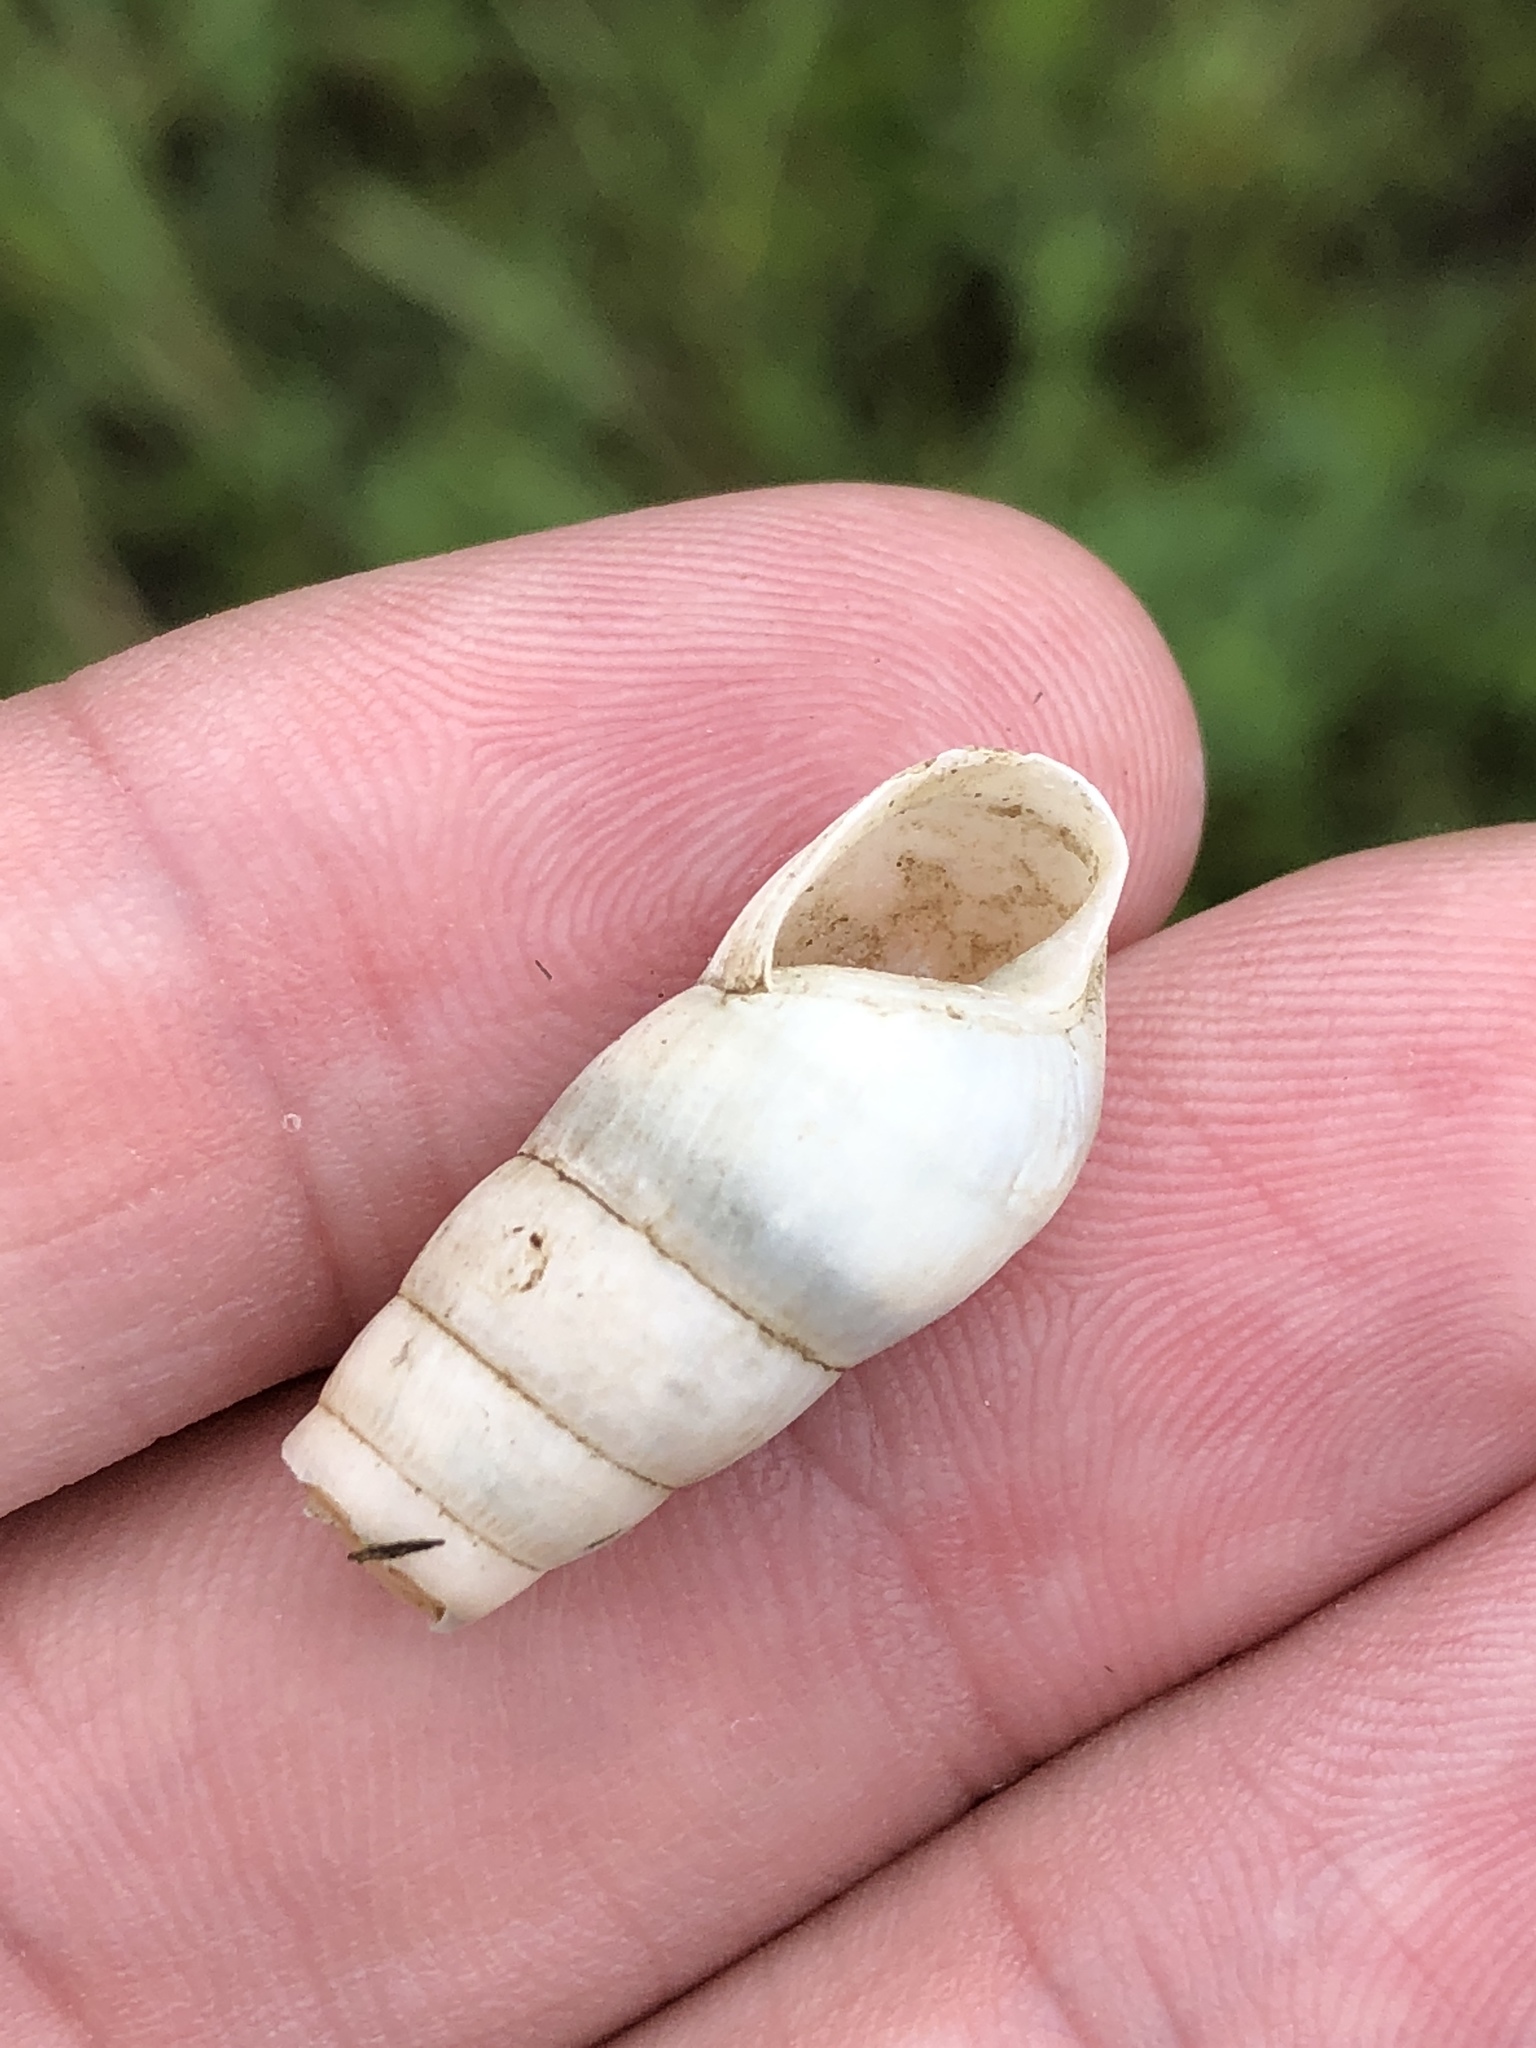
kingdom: Animalia
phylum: Mollusca
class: Gastropoda
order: Stylommatophora
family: Achatinidae
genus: Rumina
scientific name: Rumina decollata
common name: Decollate snail
